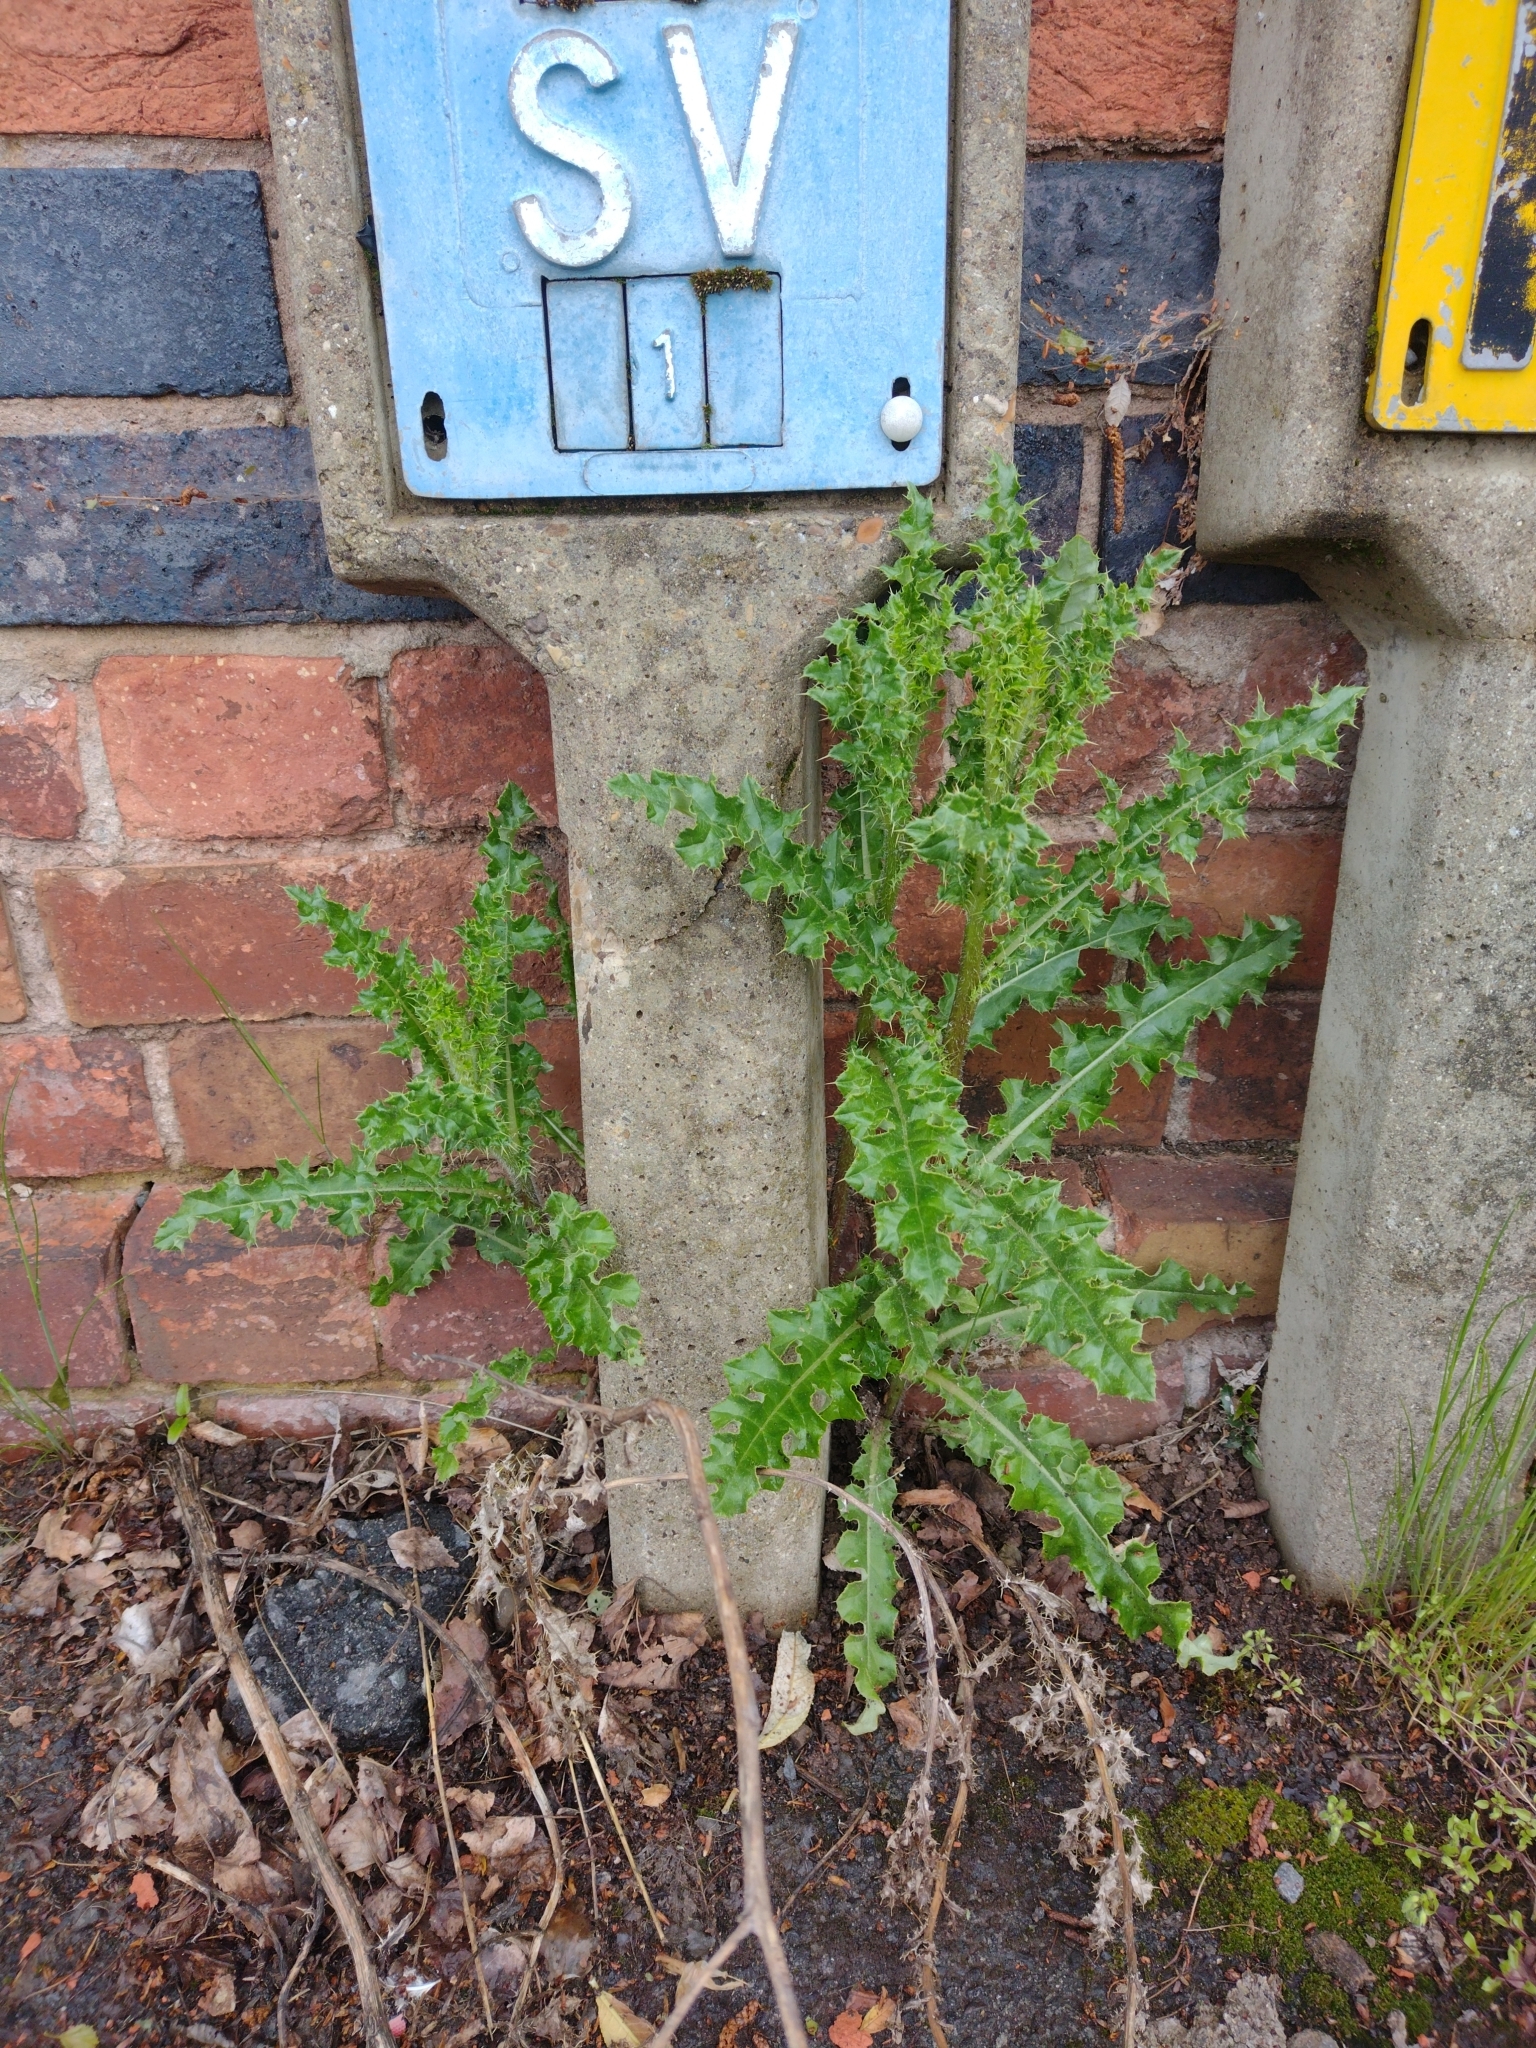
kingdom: Plantae
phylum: Tracheophyta
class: Magnoliopsida
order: Asterales
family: Asteraceae
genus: Cirsium
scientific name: Cirsium arvense
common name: Creeping thistle
